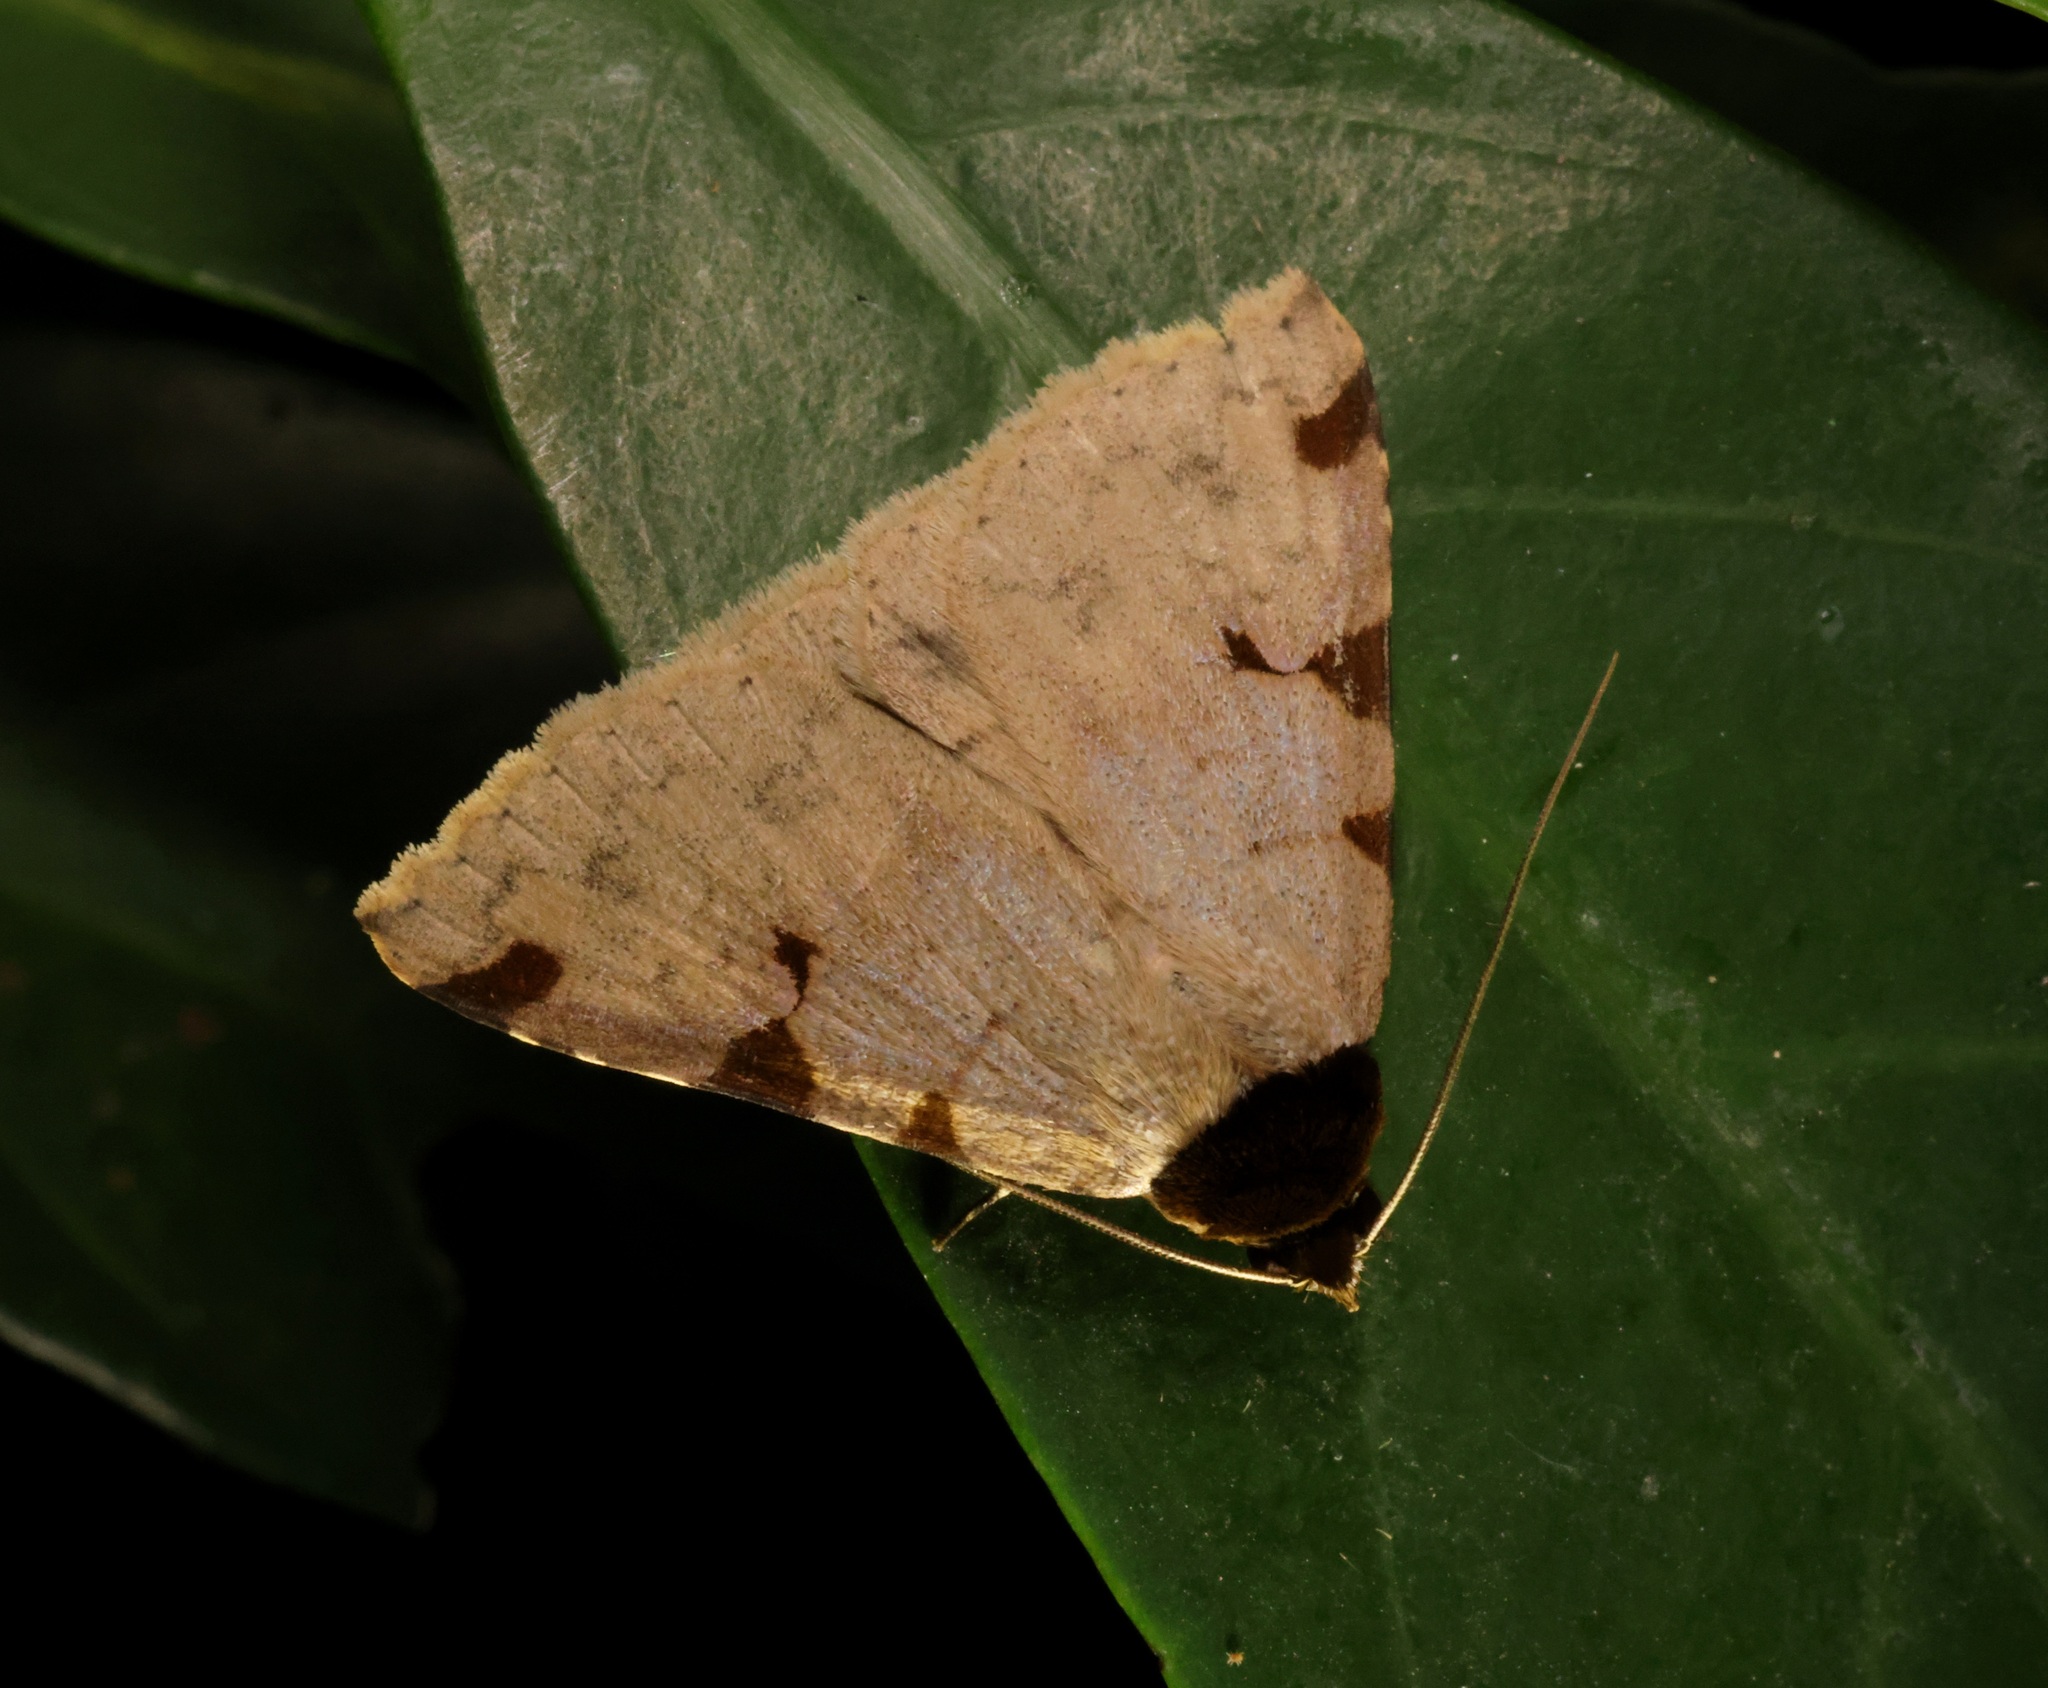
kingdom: Animalia
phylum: Arthropoda
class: Insecta
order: Lepidoptera
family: Erebidae
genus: Rema
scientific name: Rema costimacula
